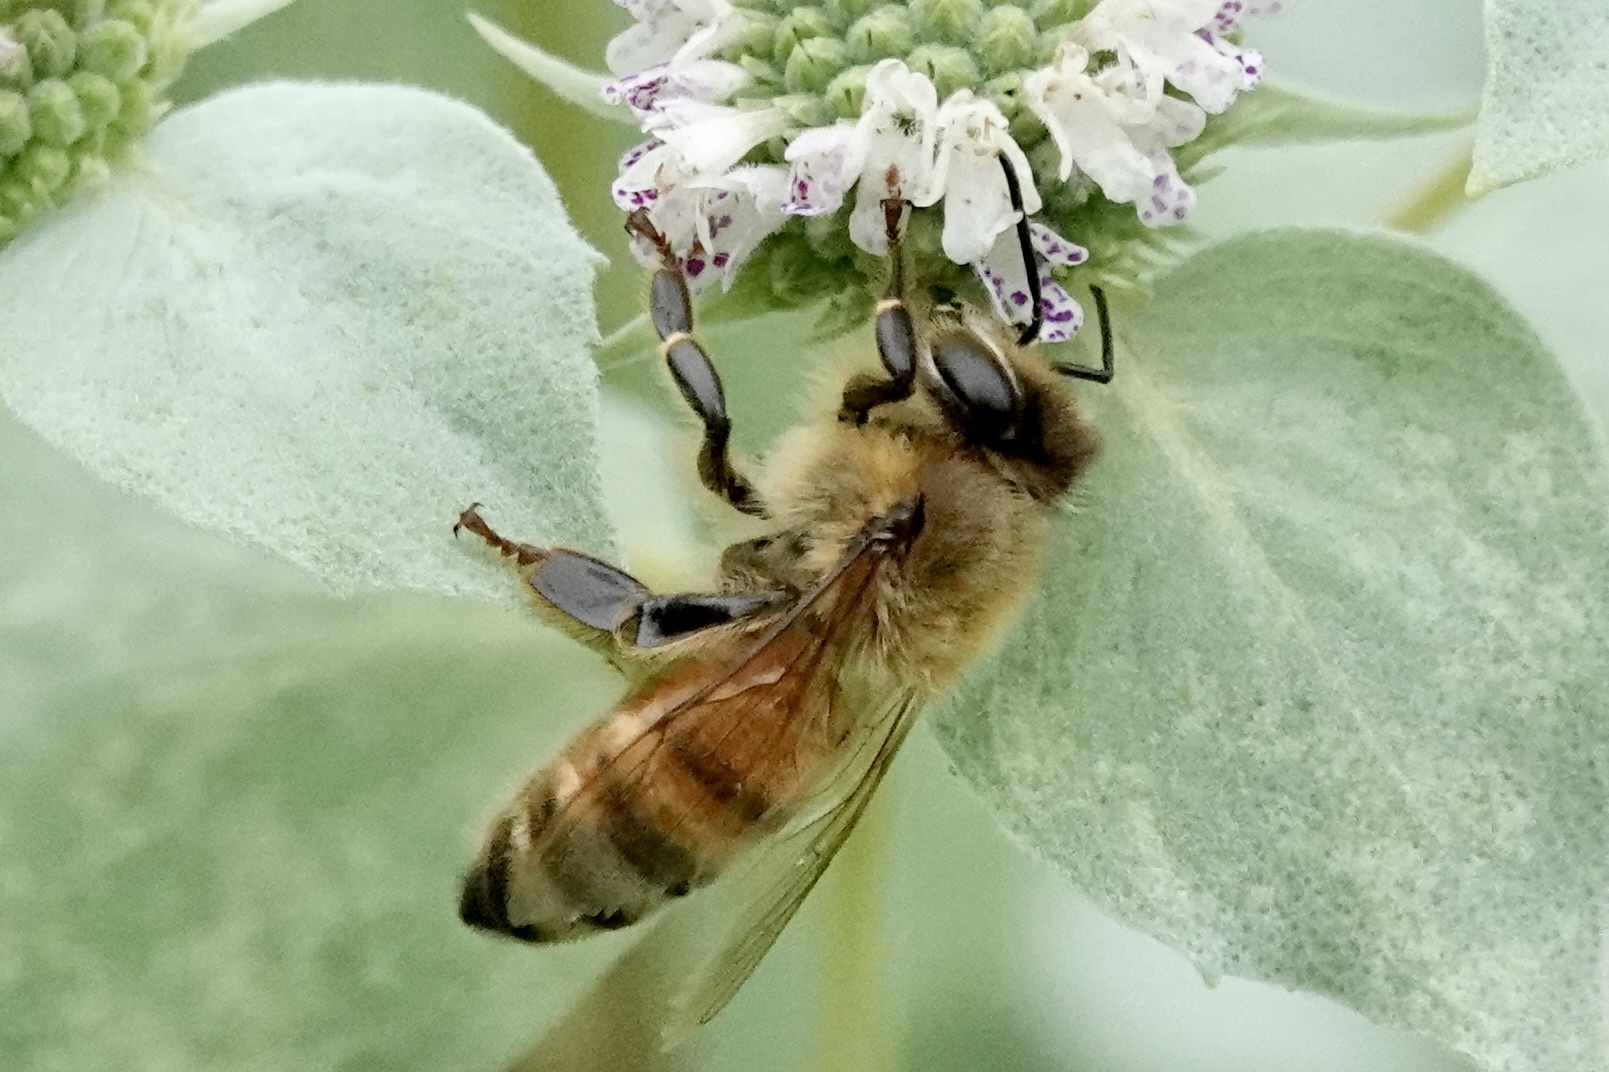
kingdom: Animalia
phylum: Arthropoda
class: Insecta
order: Hymenoptera
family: Apidae
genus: Apis
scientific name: Apis mellifera
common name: Honey bee
